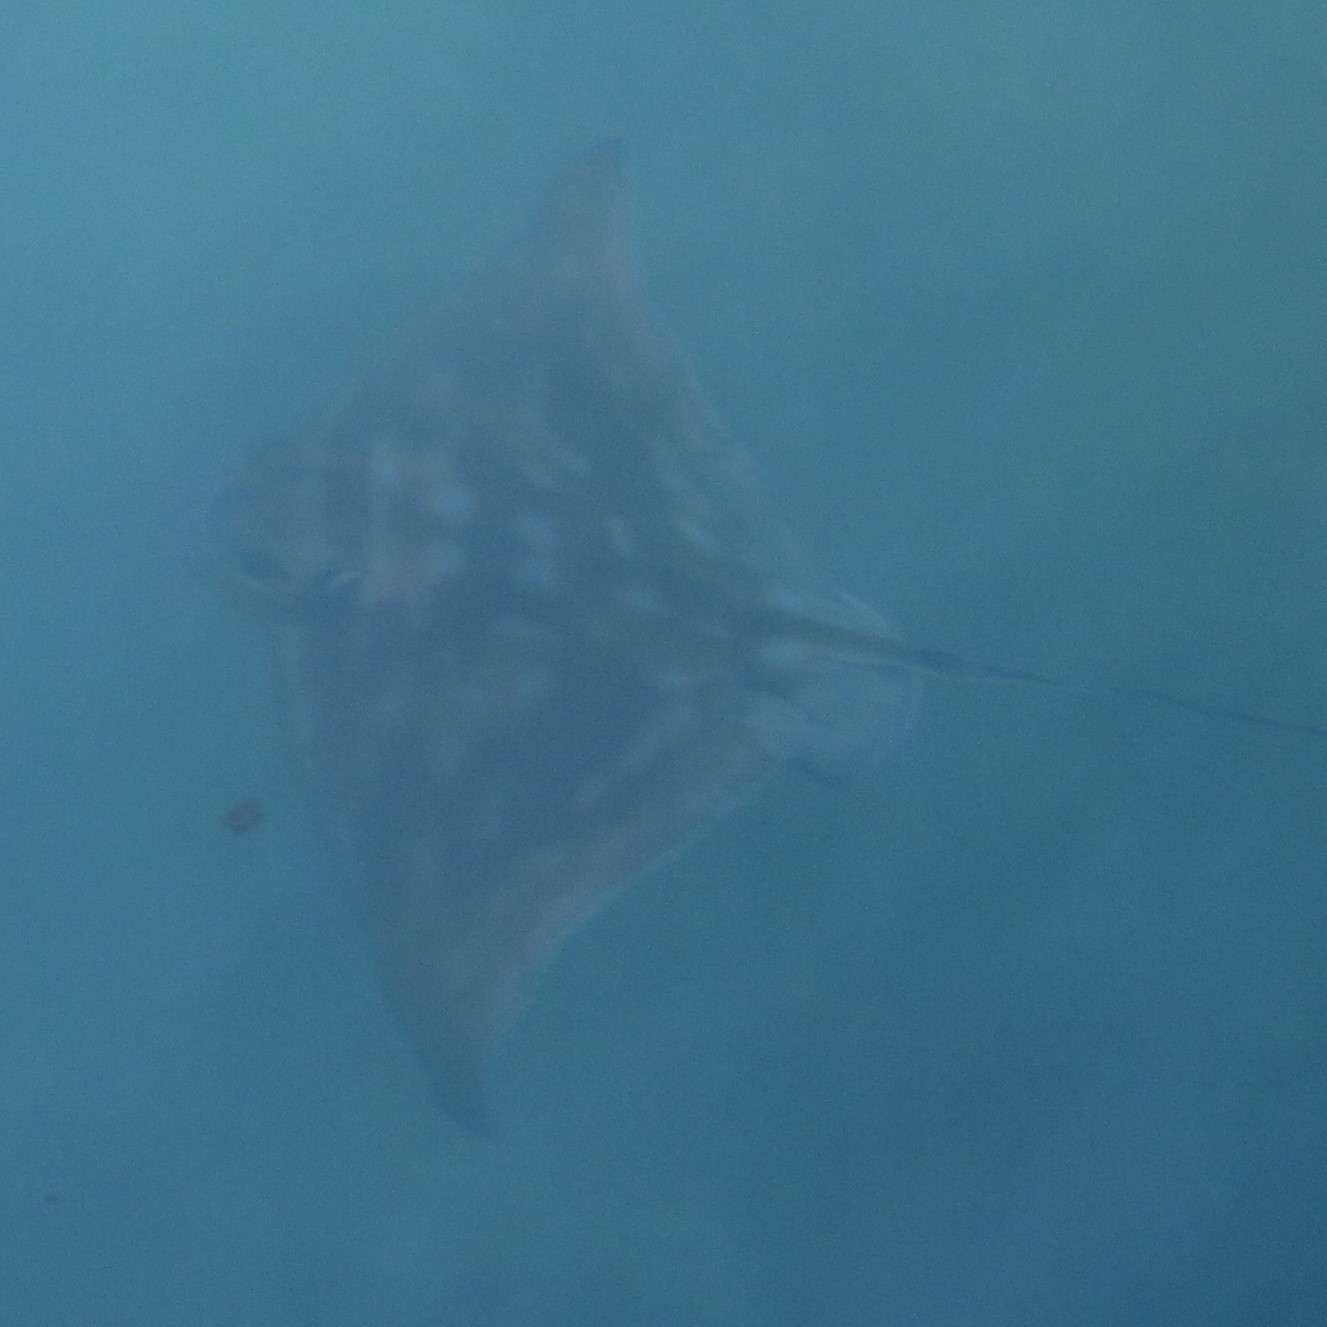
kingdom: Animalia
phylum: Chordata
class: Elasmobranchii
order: Myliobatiformes
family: Myliobatidae
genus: Myliobatis
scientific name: Myliobatis tenuicaudatus
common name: Eagle ray
